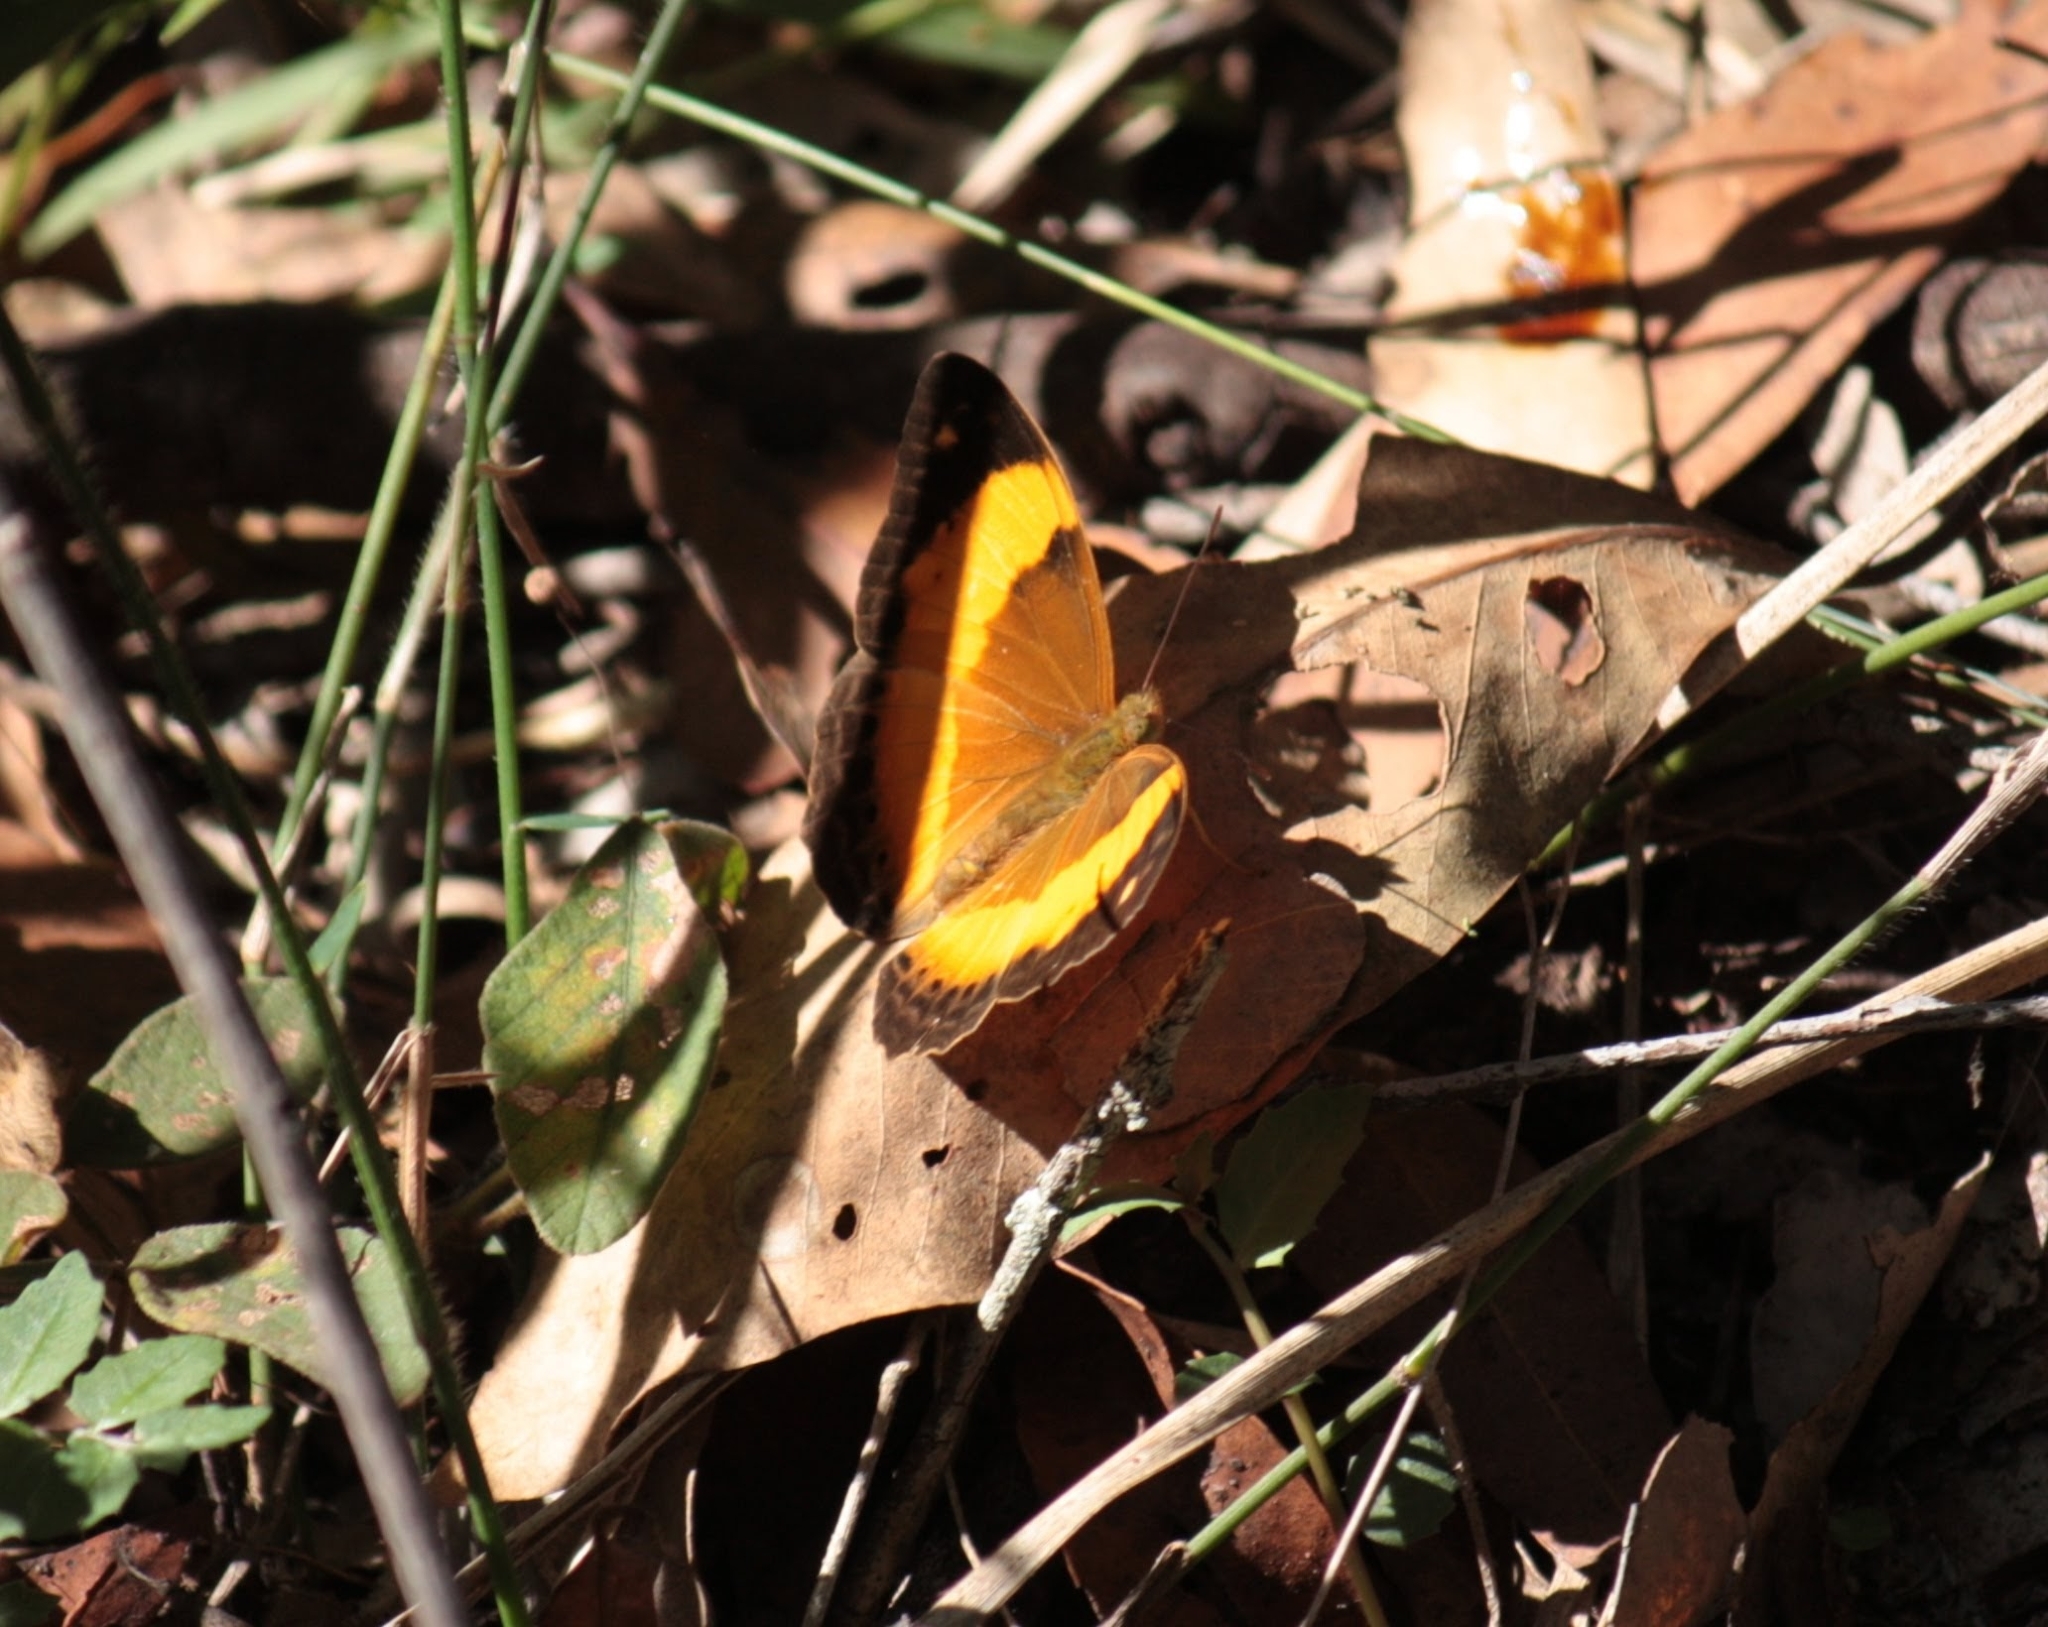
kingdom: Animalia
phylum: Arthropoda
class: Insecta
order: Lepidoptera
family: Nymphalidae
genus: Cupha
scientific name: Cupha prosope
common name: Bordered rustic
